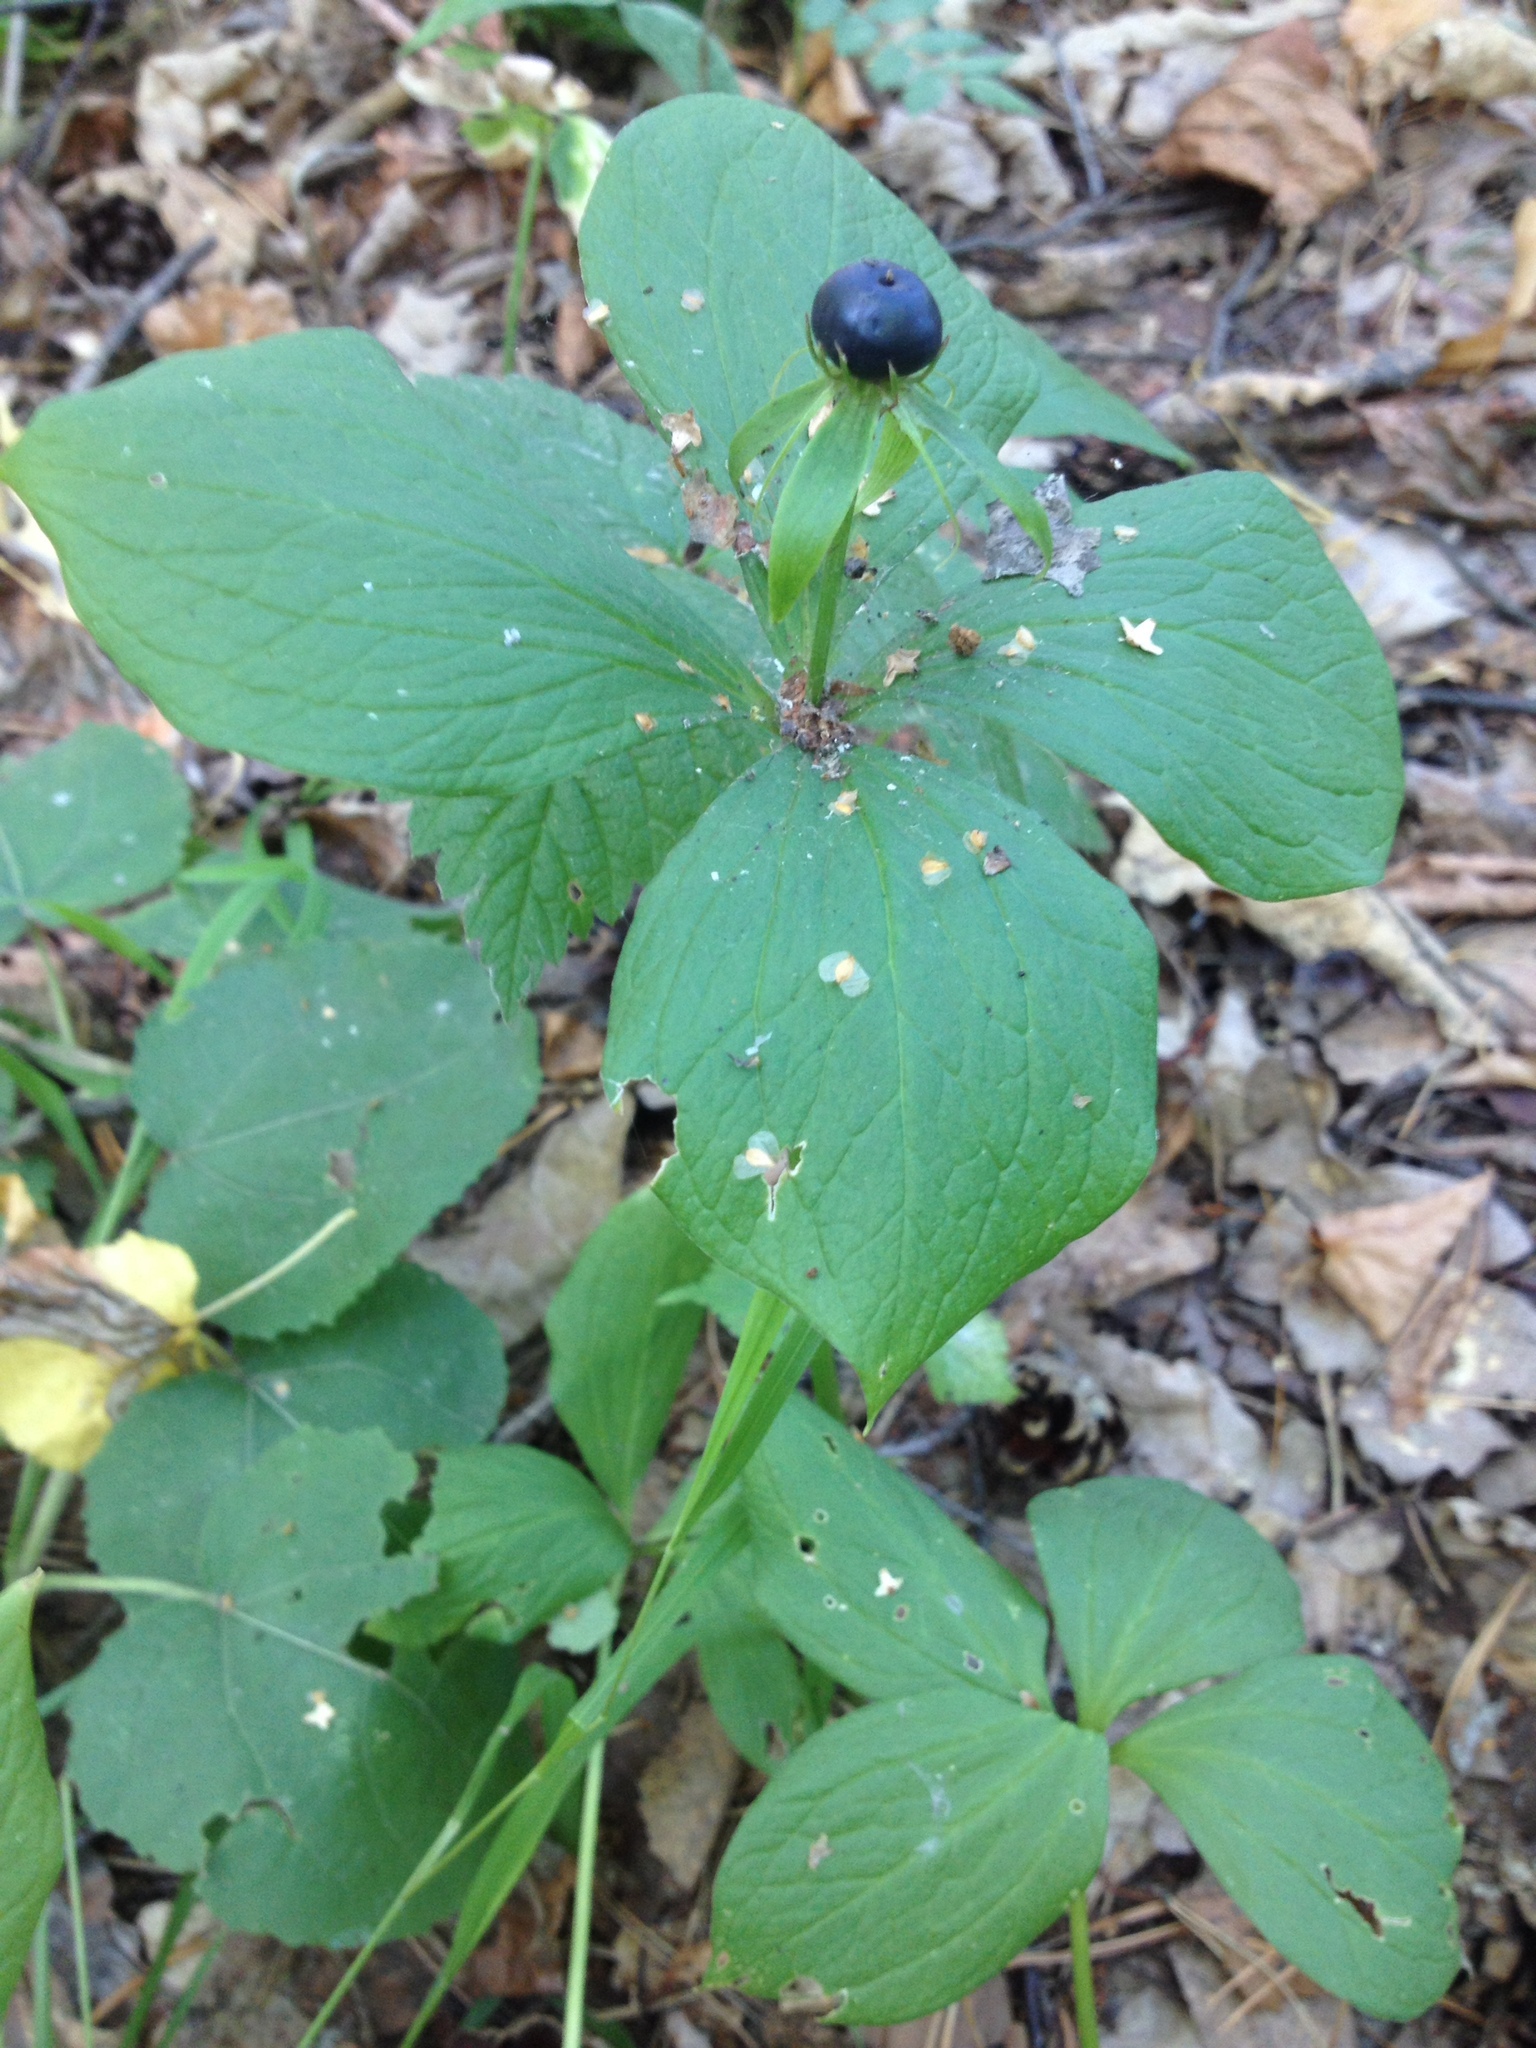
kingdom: Plantae
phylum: Tracheophyta
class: Liliopsida
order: Liliales
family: Melanthiaceae
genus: Paris
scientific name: Paris quadrifolia
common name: Herb-paris
